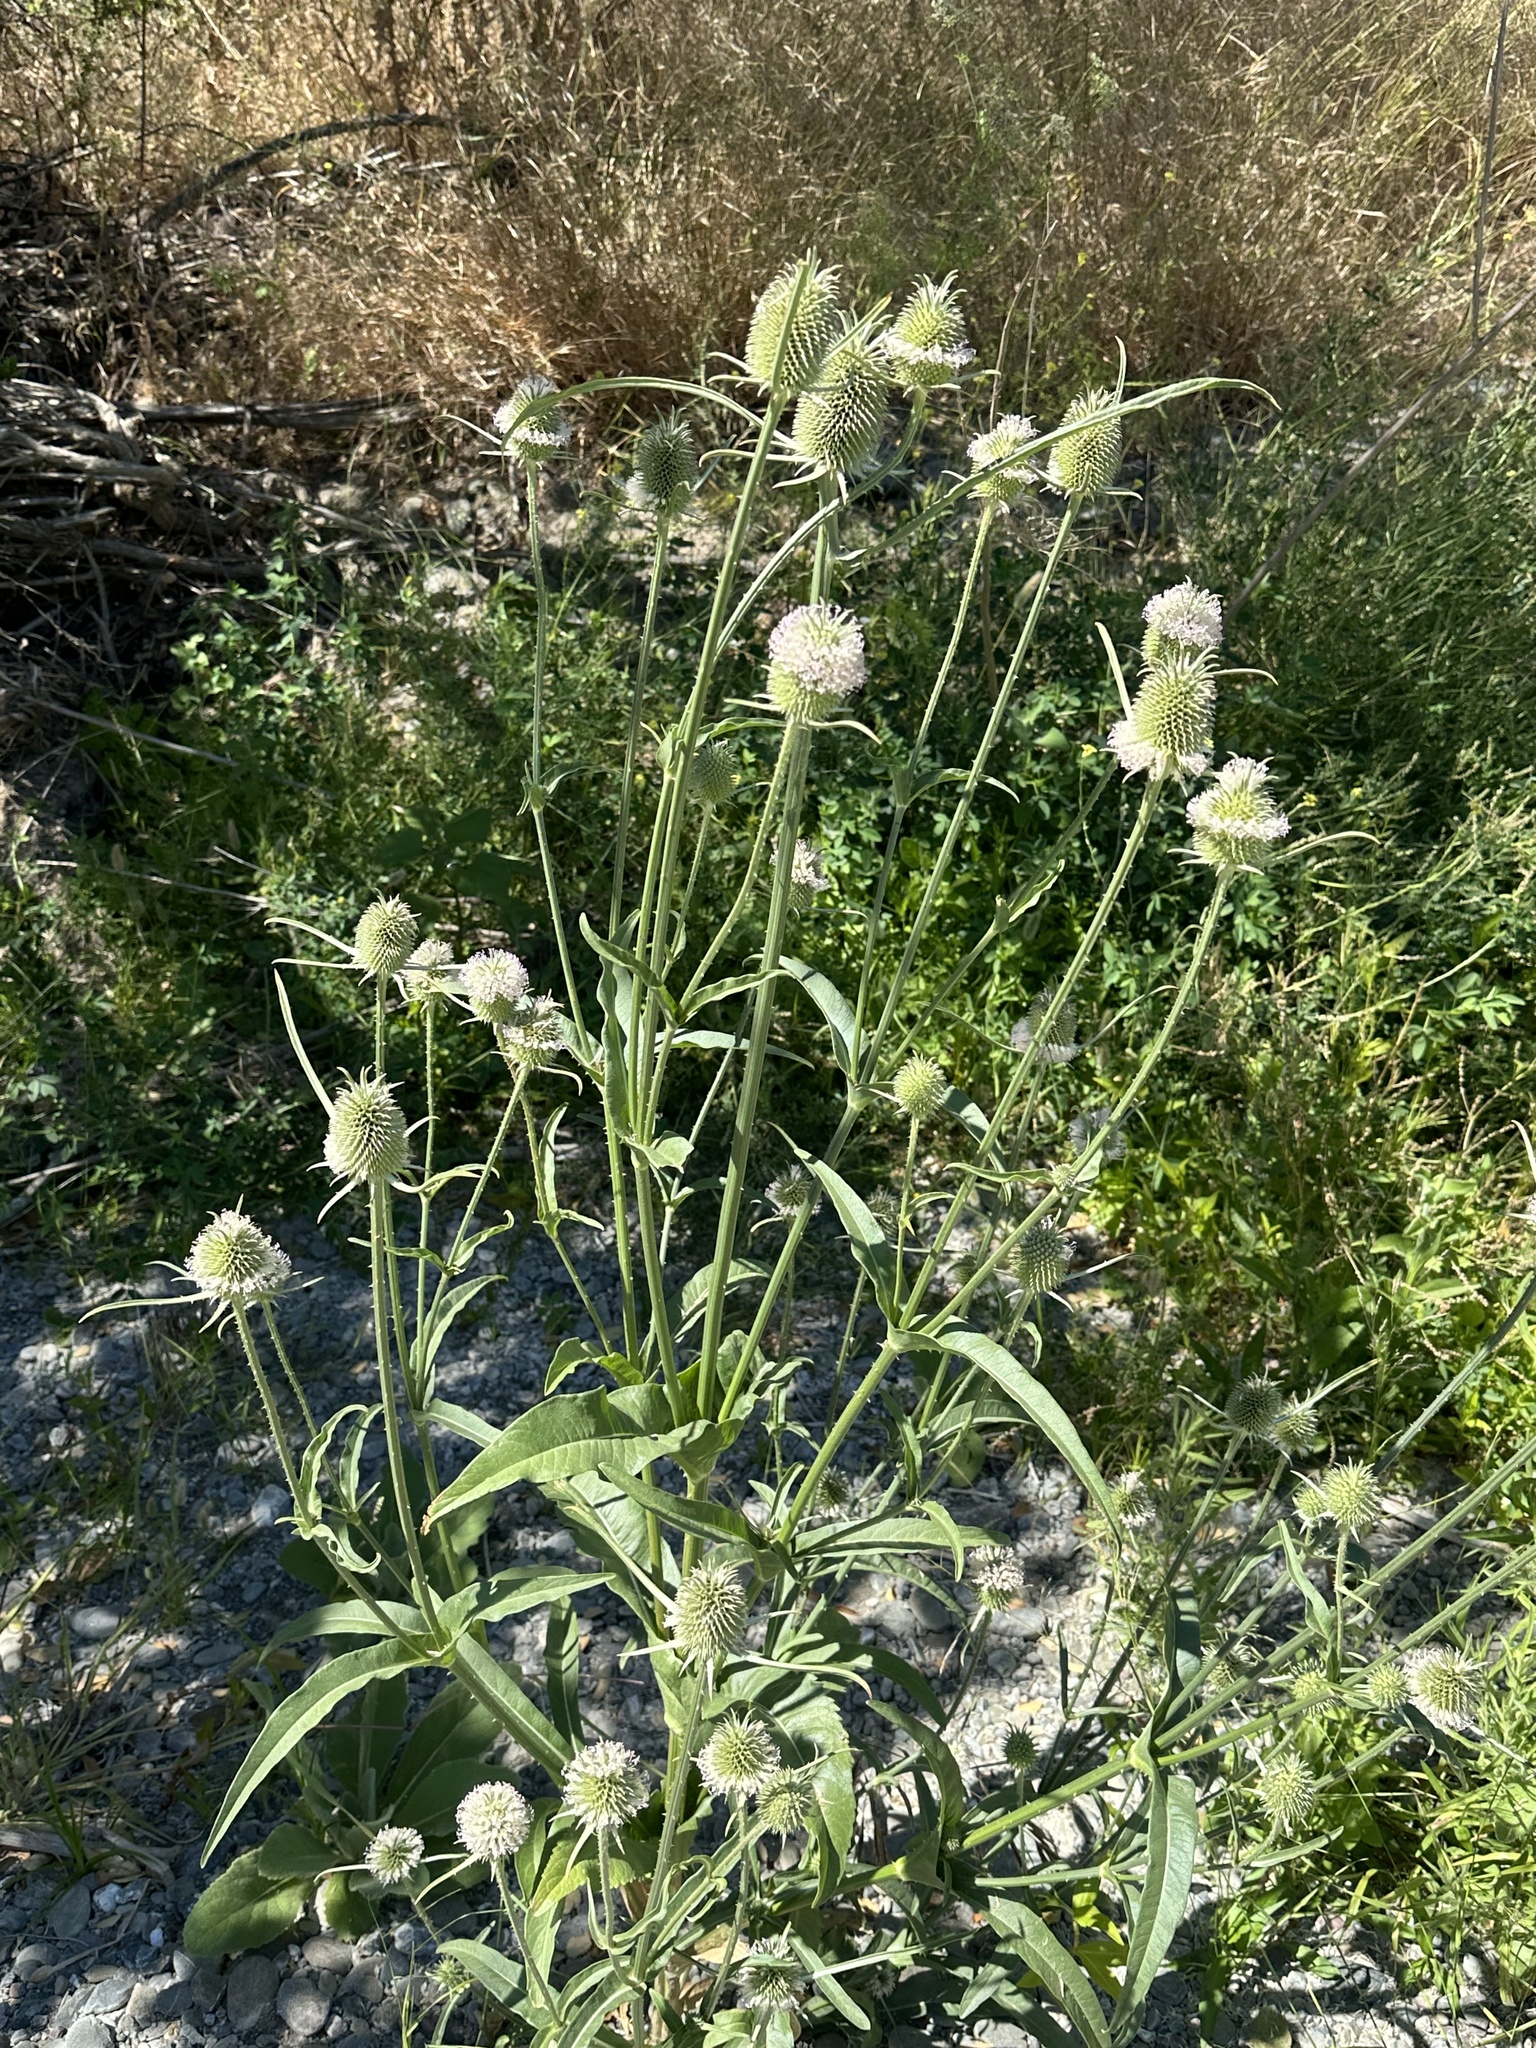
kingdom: Plantae
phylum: Tracheophyta
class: Magnoliopsida
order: Dipsacales
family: Caprifoliaceae
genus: Dipsacus
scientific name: Dipsacus sativus
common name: Fuller's teasel
